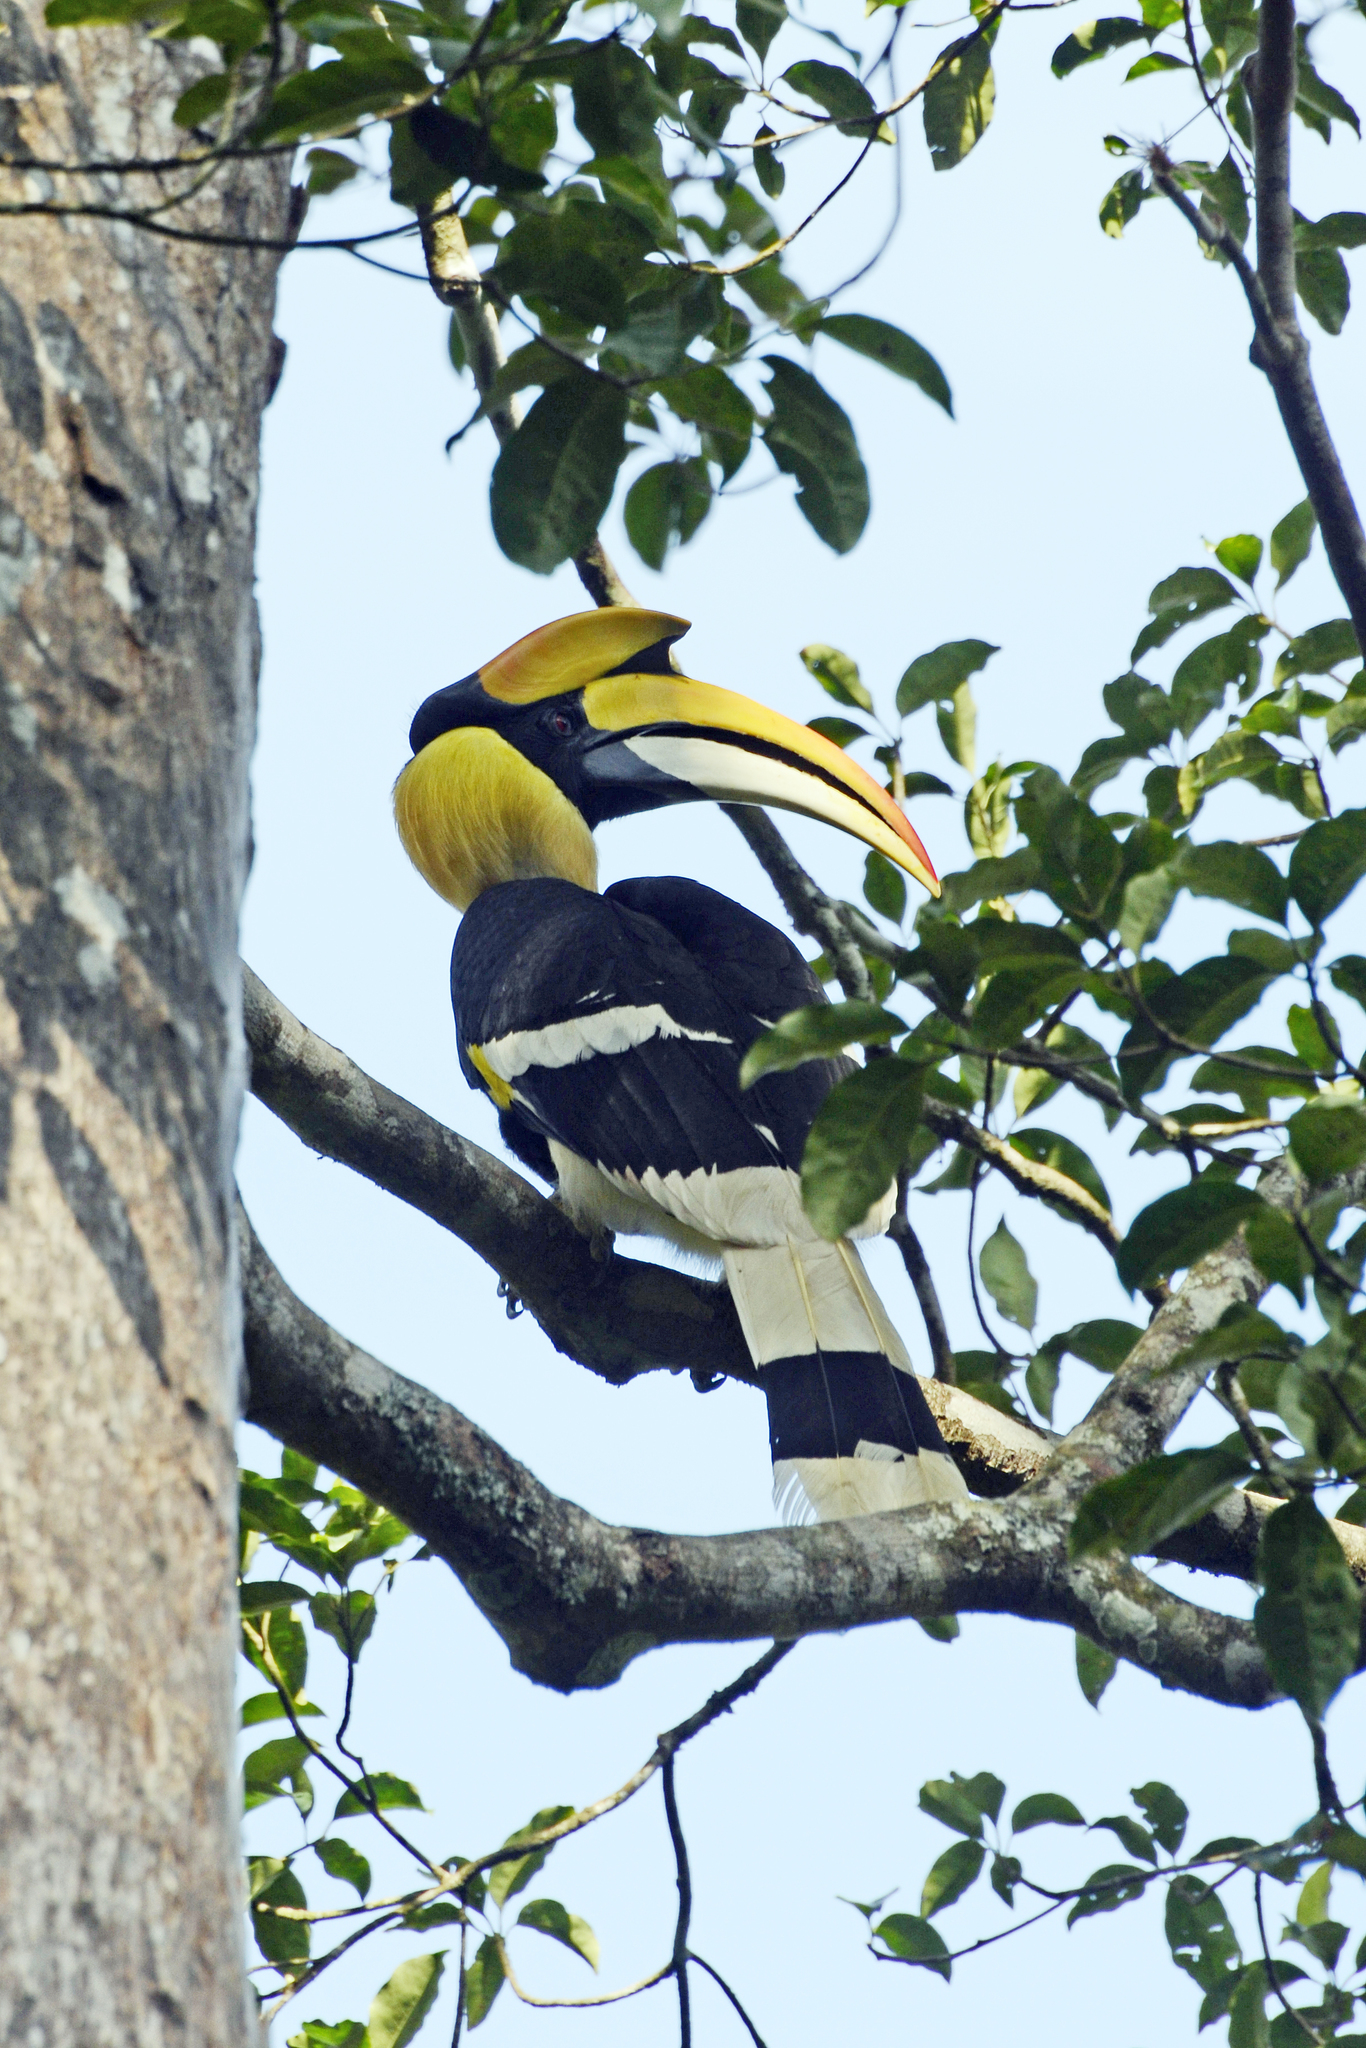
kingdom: Animalia
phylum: Chordata
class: Aves
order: Bucerotiformes
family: Bucerotidae
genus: Buceros
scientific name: Buceros bicornis
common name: Great hornbill
